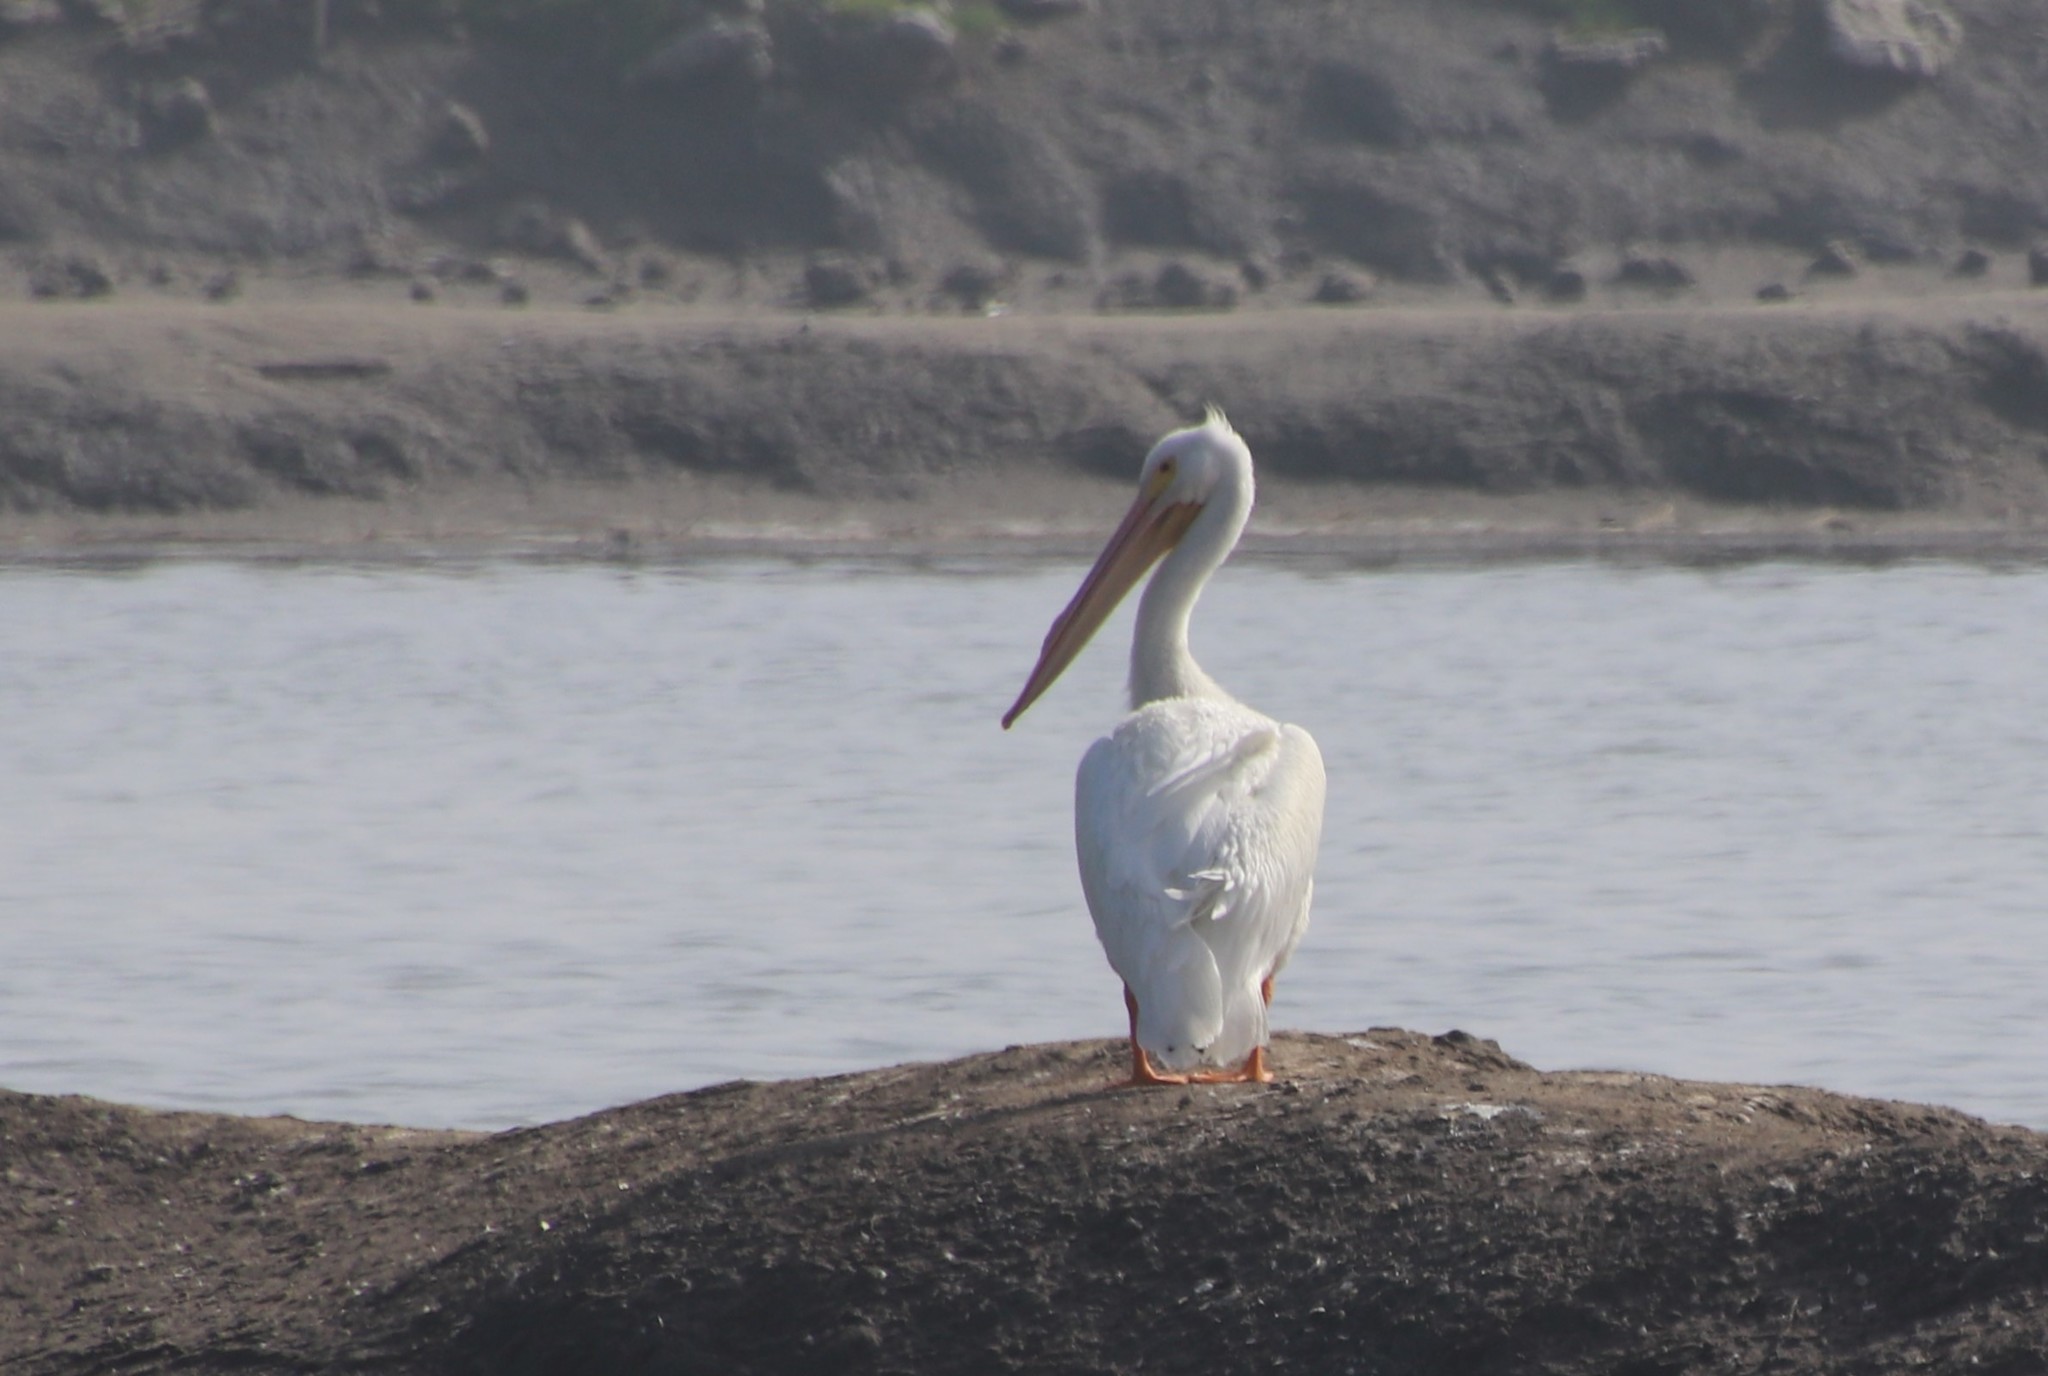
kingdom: Animalia
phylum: Chordata
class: Aves
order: Pelecaniformes
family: Pelecanidae
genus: Pelecanus
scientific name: Pelecanus erythrorhynchos
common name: American white pelican
